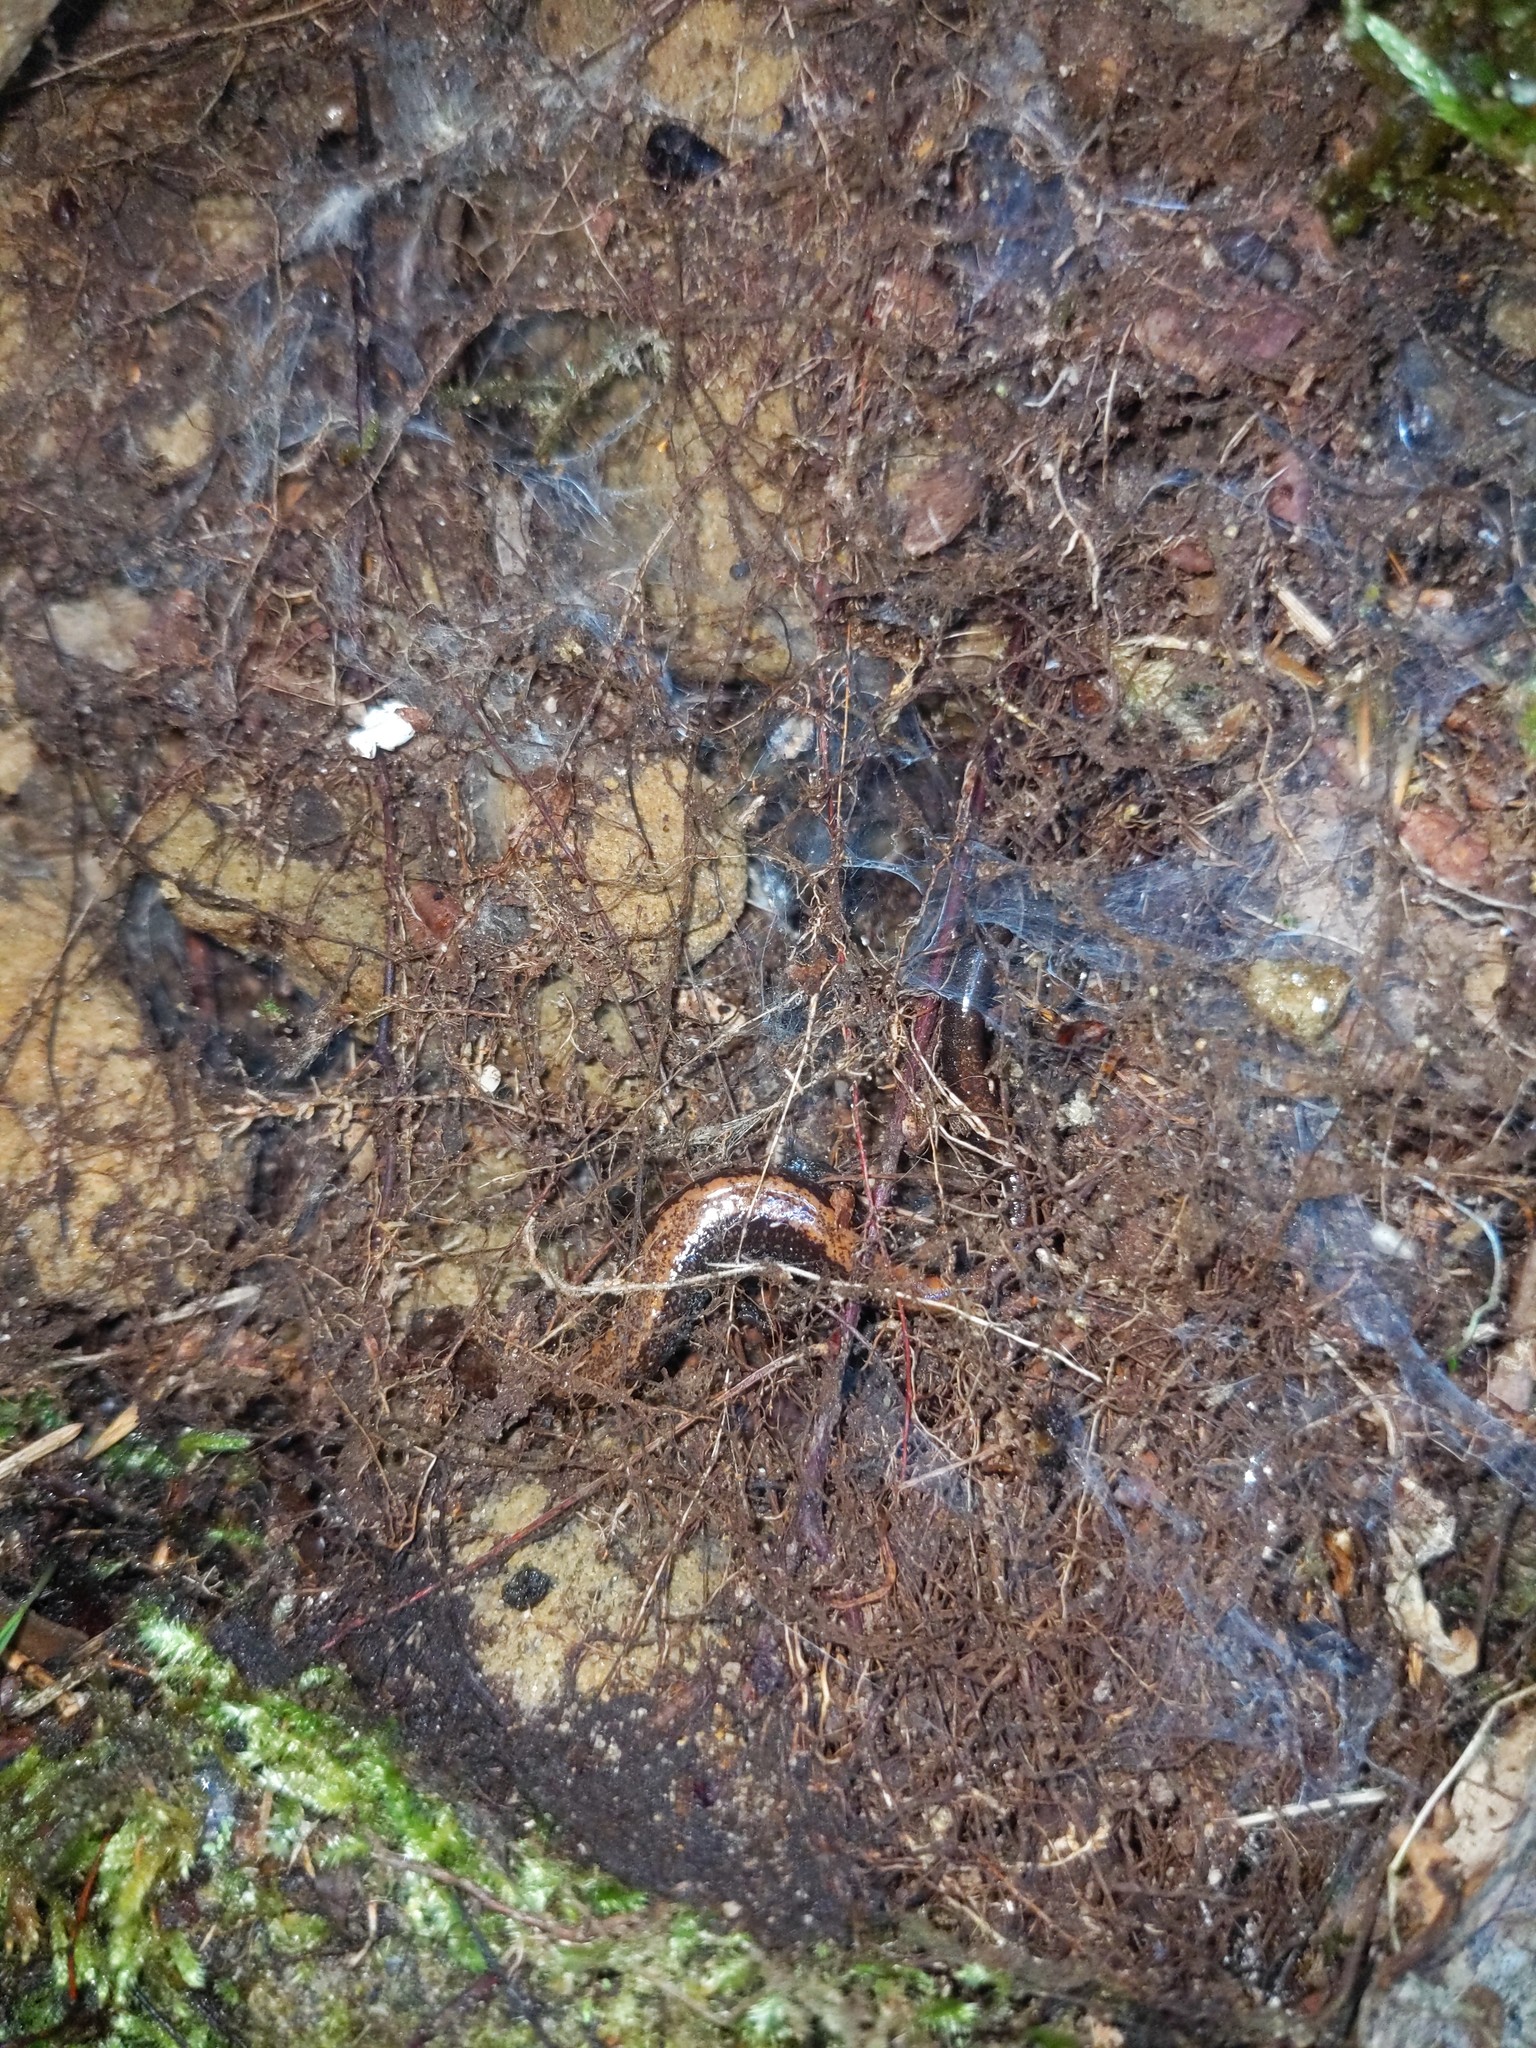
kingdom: Animalia
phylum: Chordata
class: Amphibia
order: Caudata
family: Plethodontidae
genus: Plethodon
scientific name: Plethodon cinereus
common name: Redback salamander
